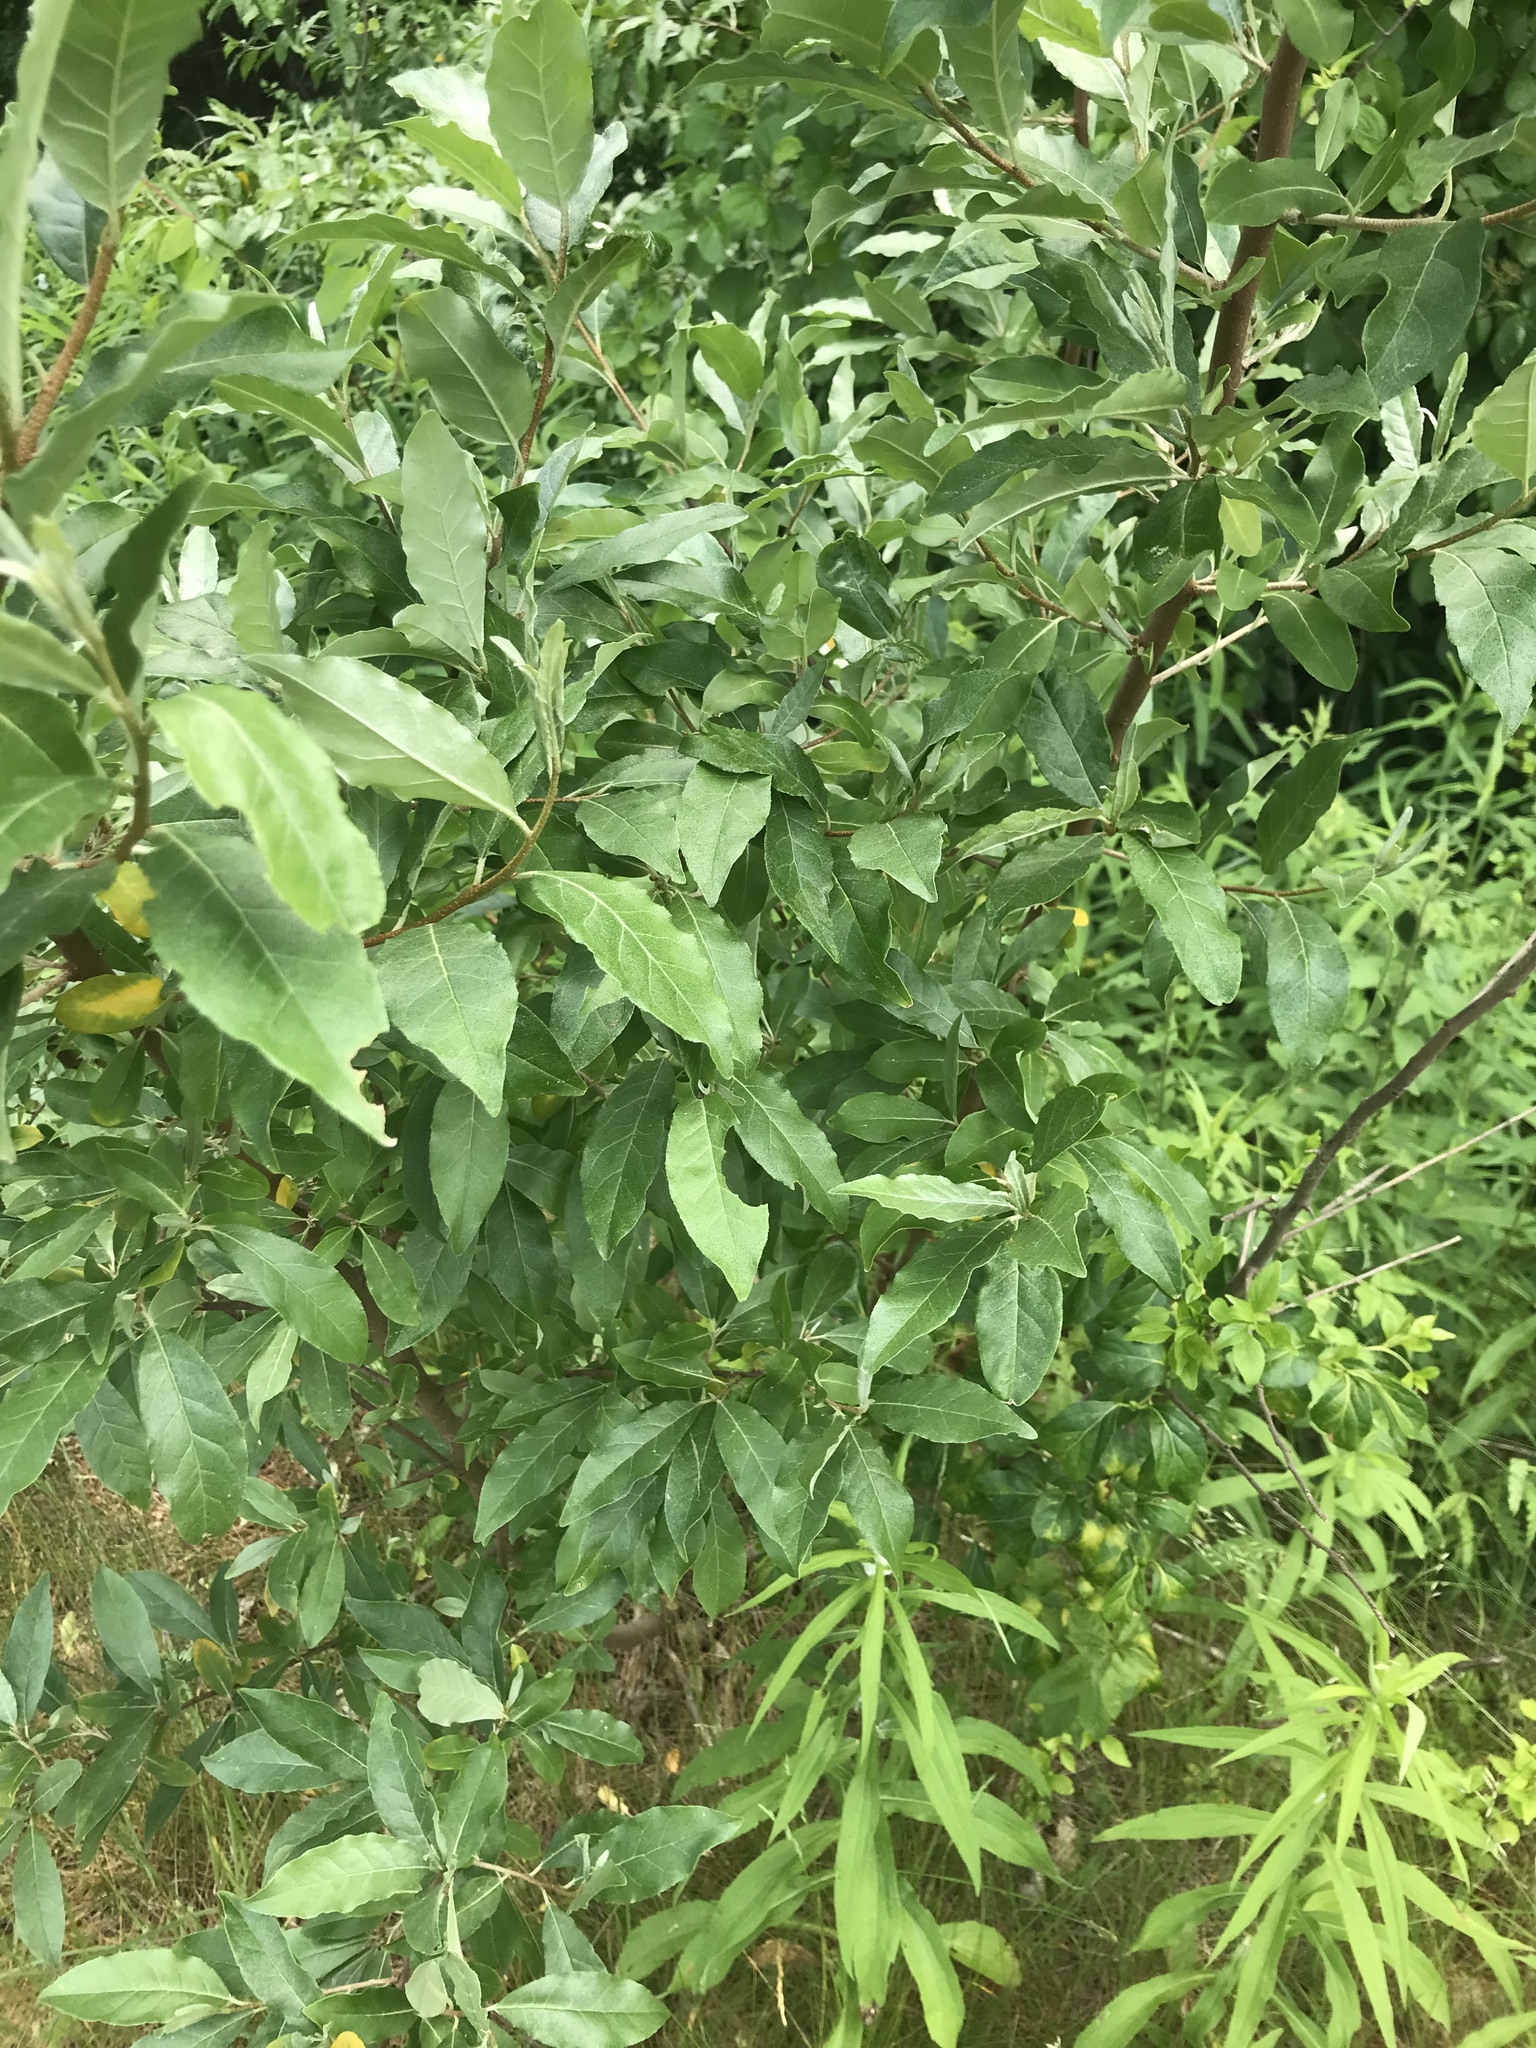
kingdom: Plantae
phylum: Tracheophyta
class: Magnoliopsida
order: Rosales
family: Elaeagnaceae
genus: Elaeagnus
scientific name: Elaeagnus umbellata
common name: Autumn olive
